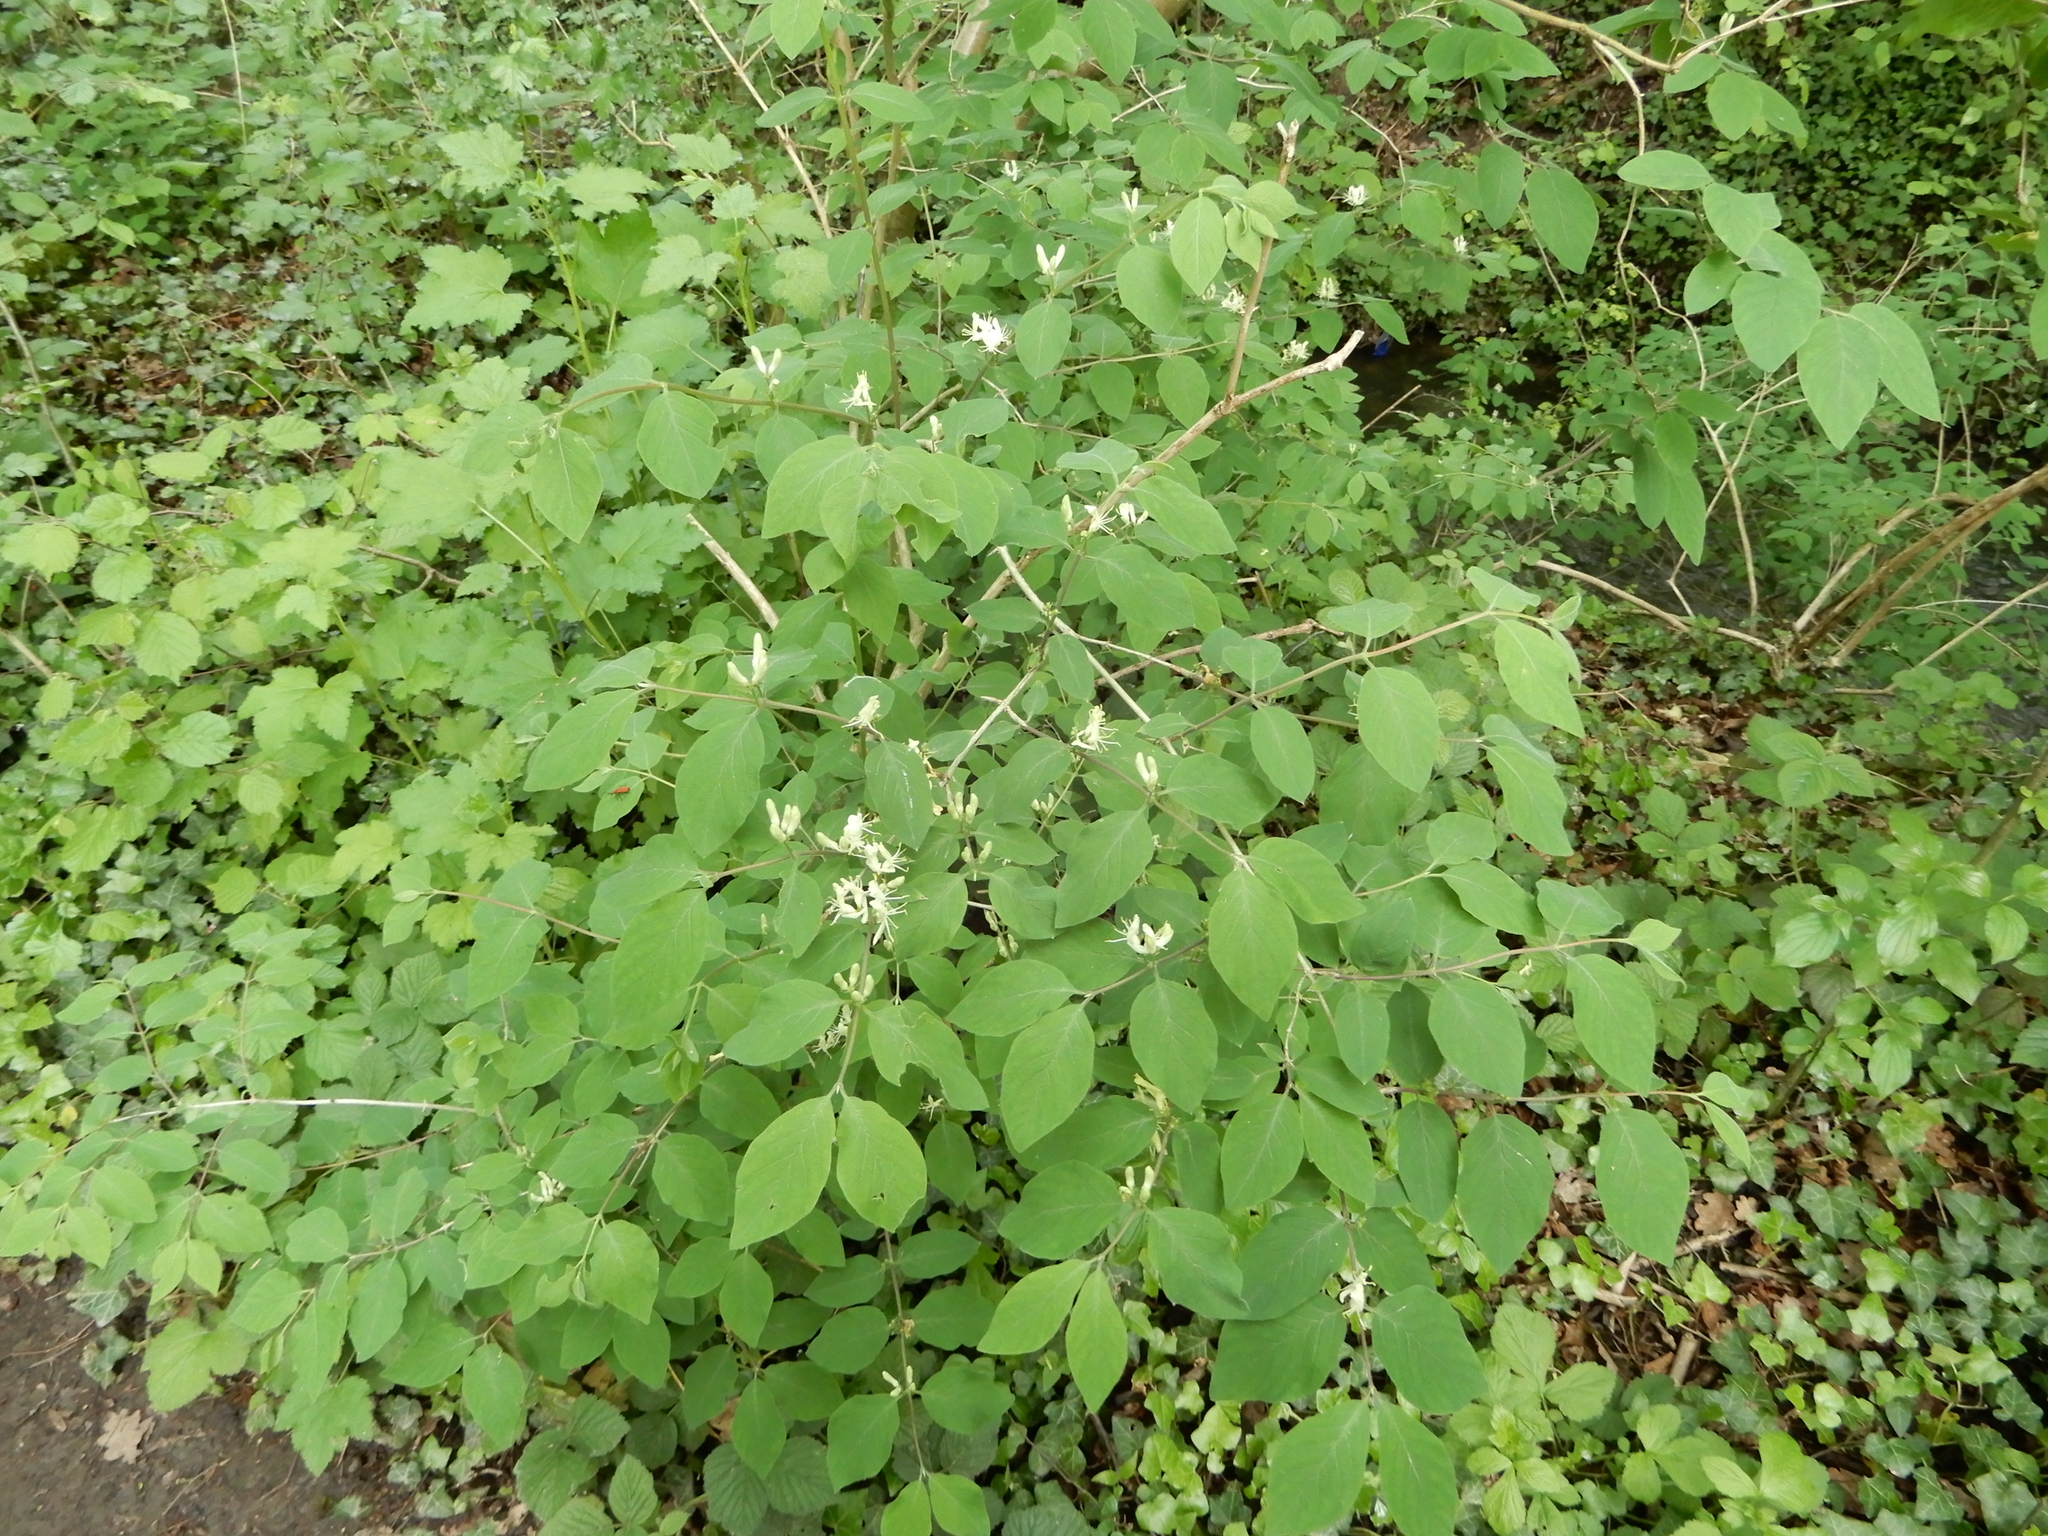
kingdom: Plantae
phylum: Tracheophyta
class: Magnoliopsida
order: Dipsacales
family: Caprifoliaceae
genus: Lonicera
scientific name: Lonicera xylosteum
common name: Fly honeysuckle
